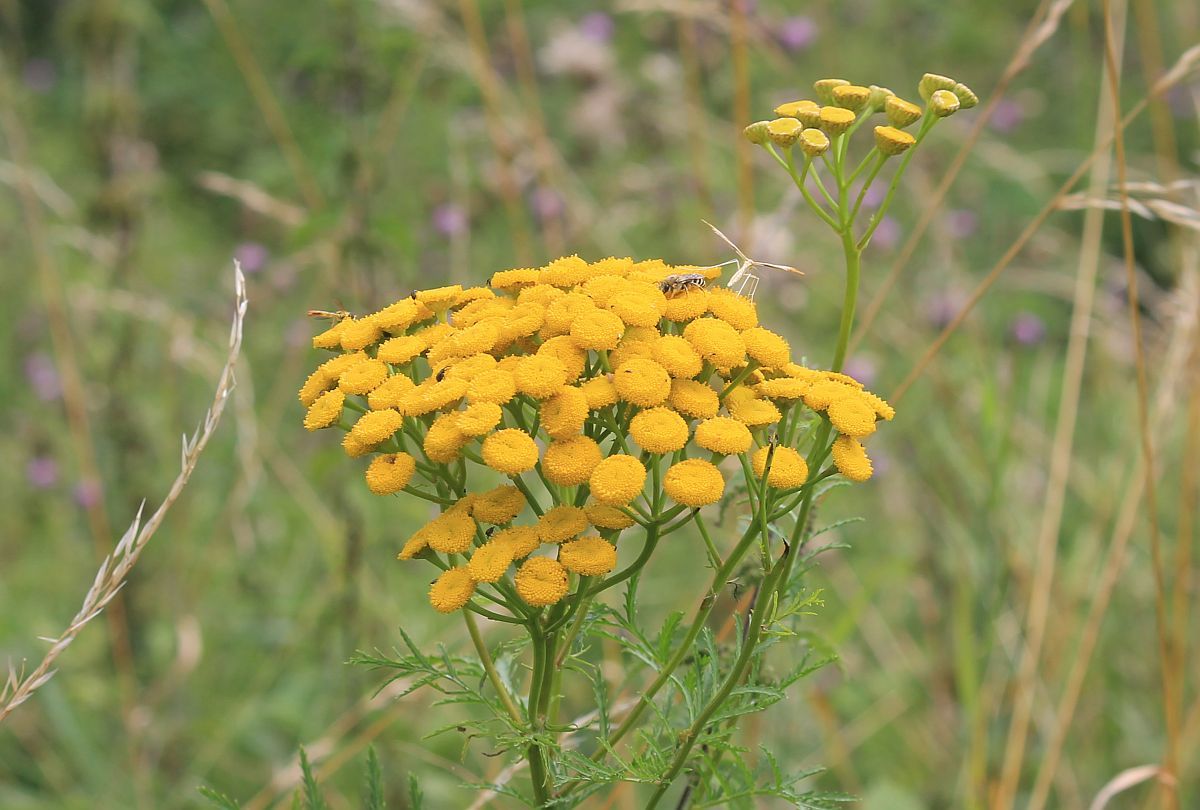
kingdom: Plantae
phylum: Tracheophyta
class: Magnoliopsida
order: Asterales
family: Asteraceae
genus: Tanacetum
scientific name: Tanacetum vulgare
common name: Common tansy
